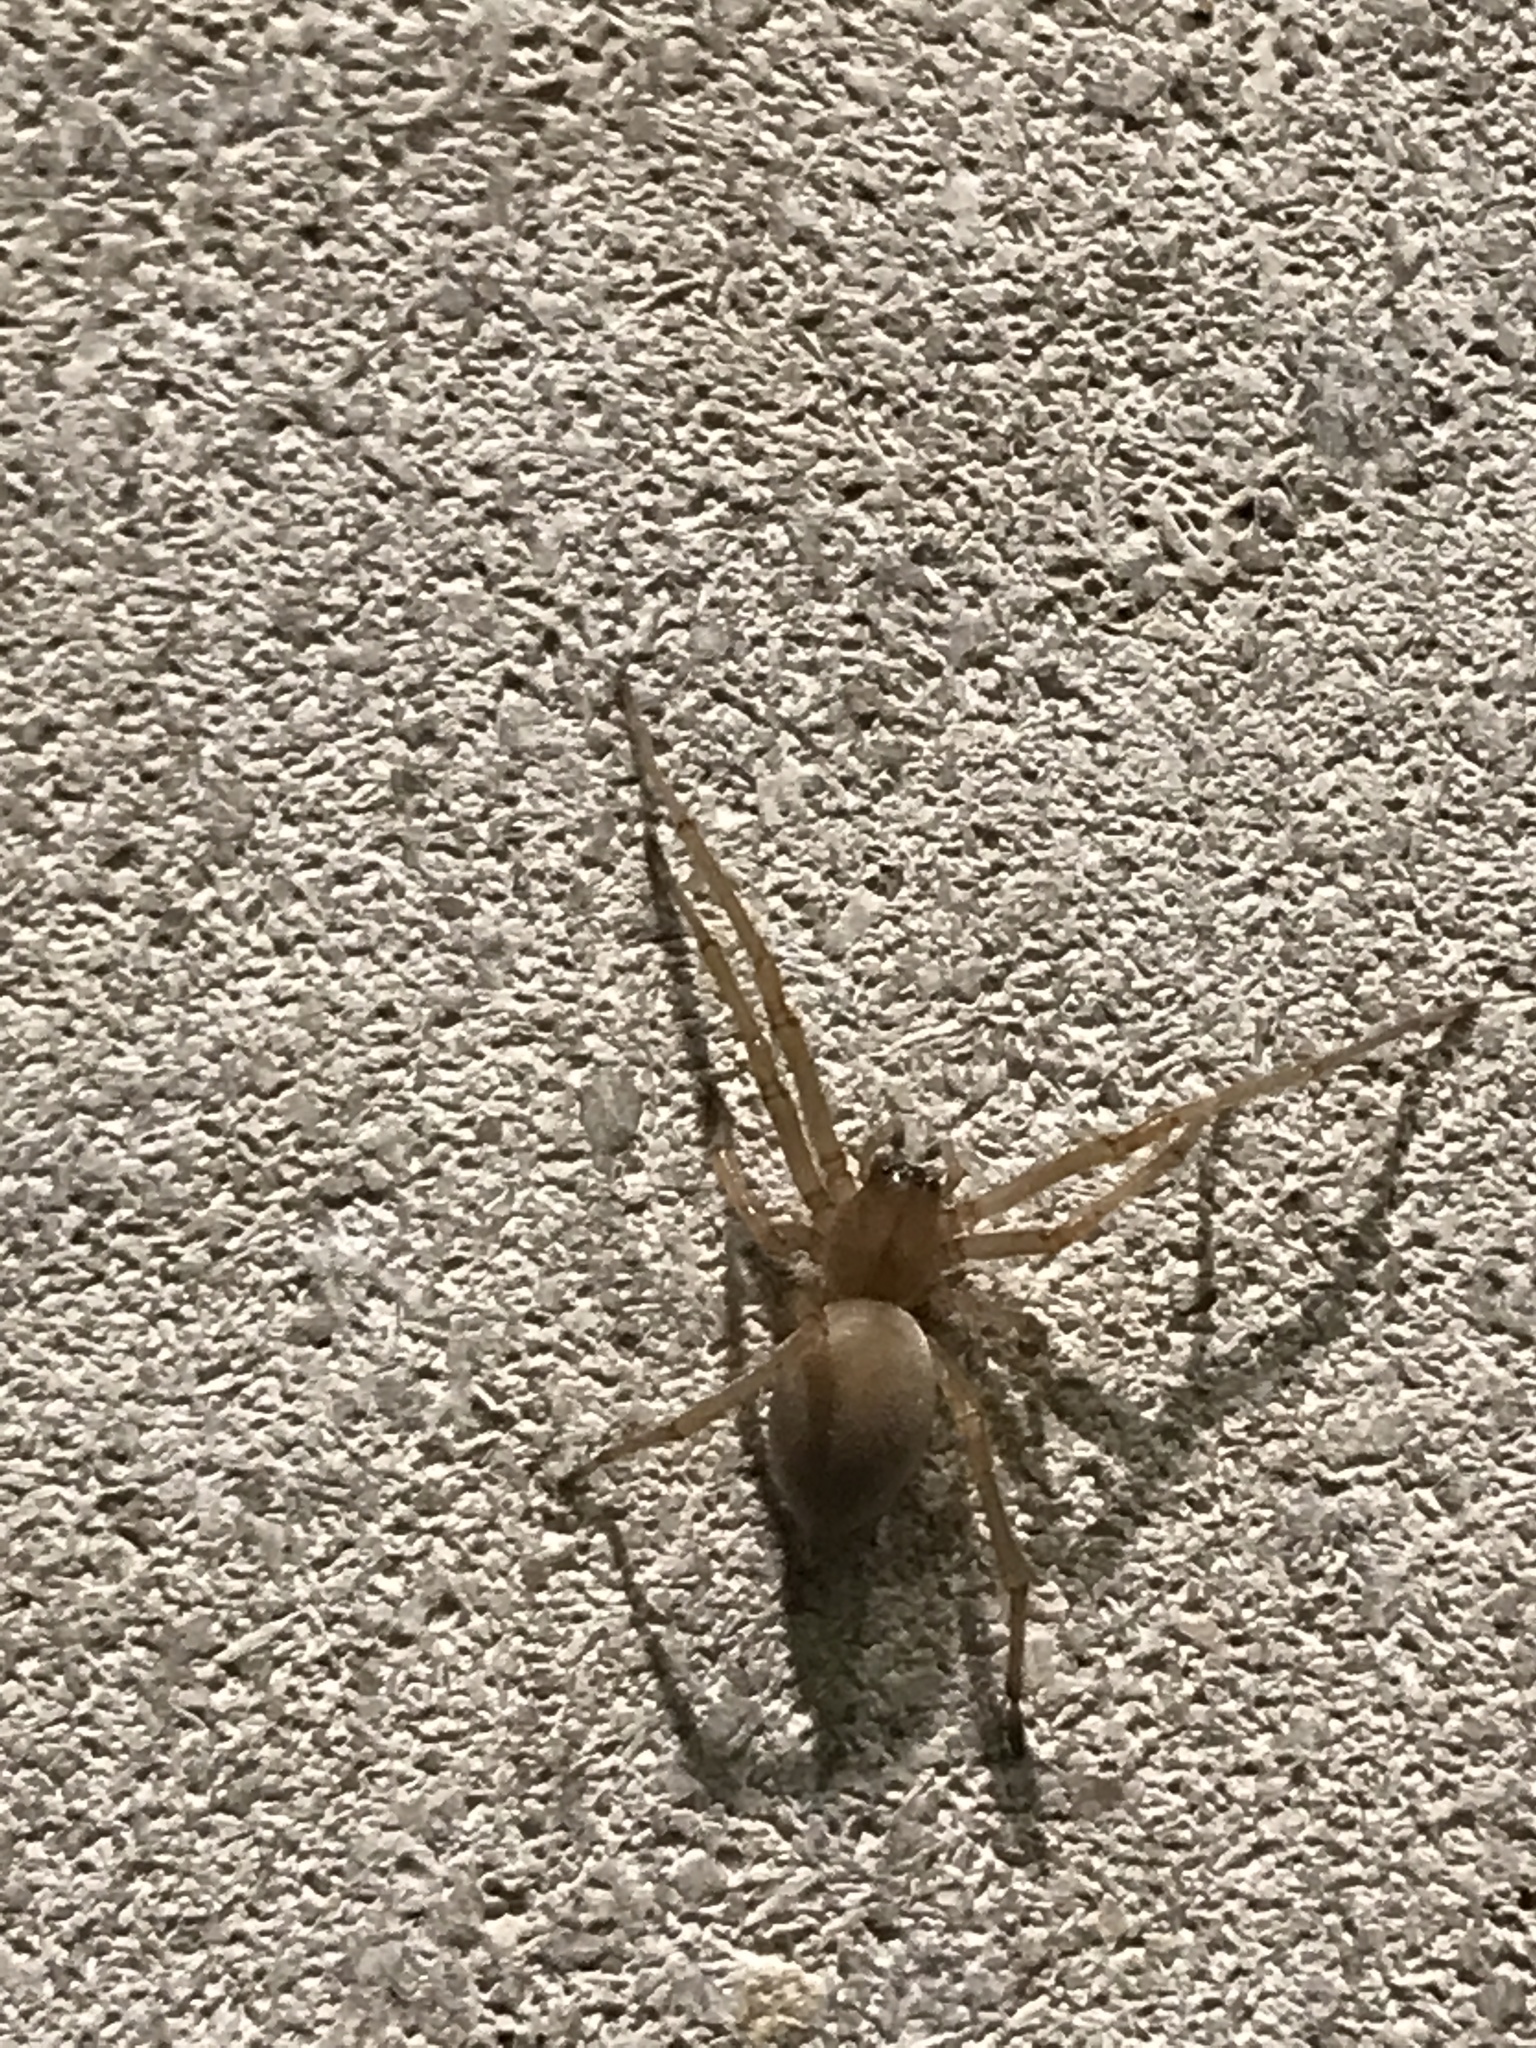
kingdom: Animalia
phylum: Arthropoda
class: Arachnida
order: Araneae
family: Cheiracanthiidae
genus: Cheiracanthium
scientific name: Cheiracanthium mildei
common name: Northern yellow sac spider
